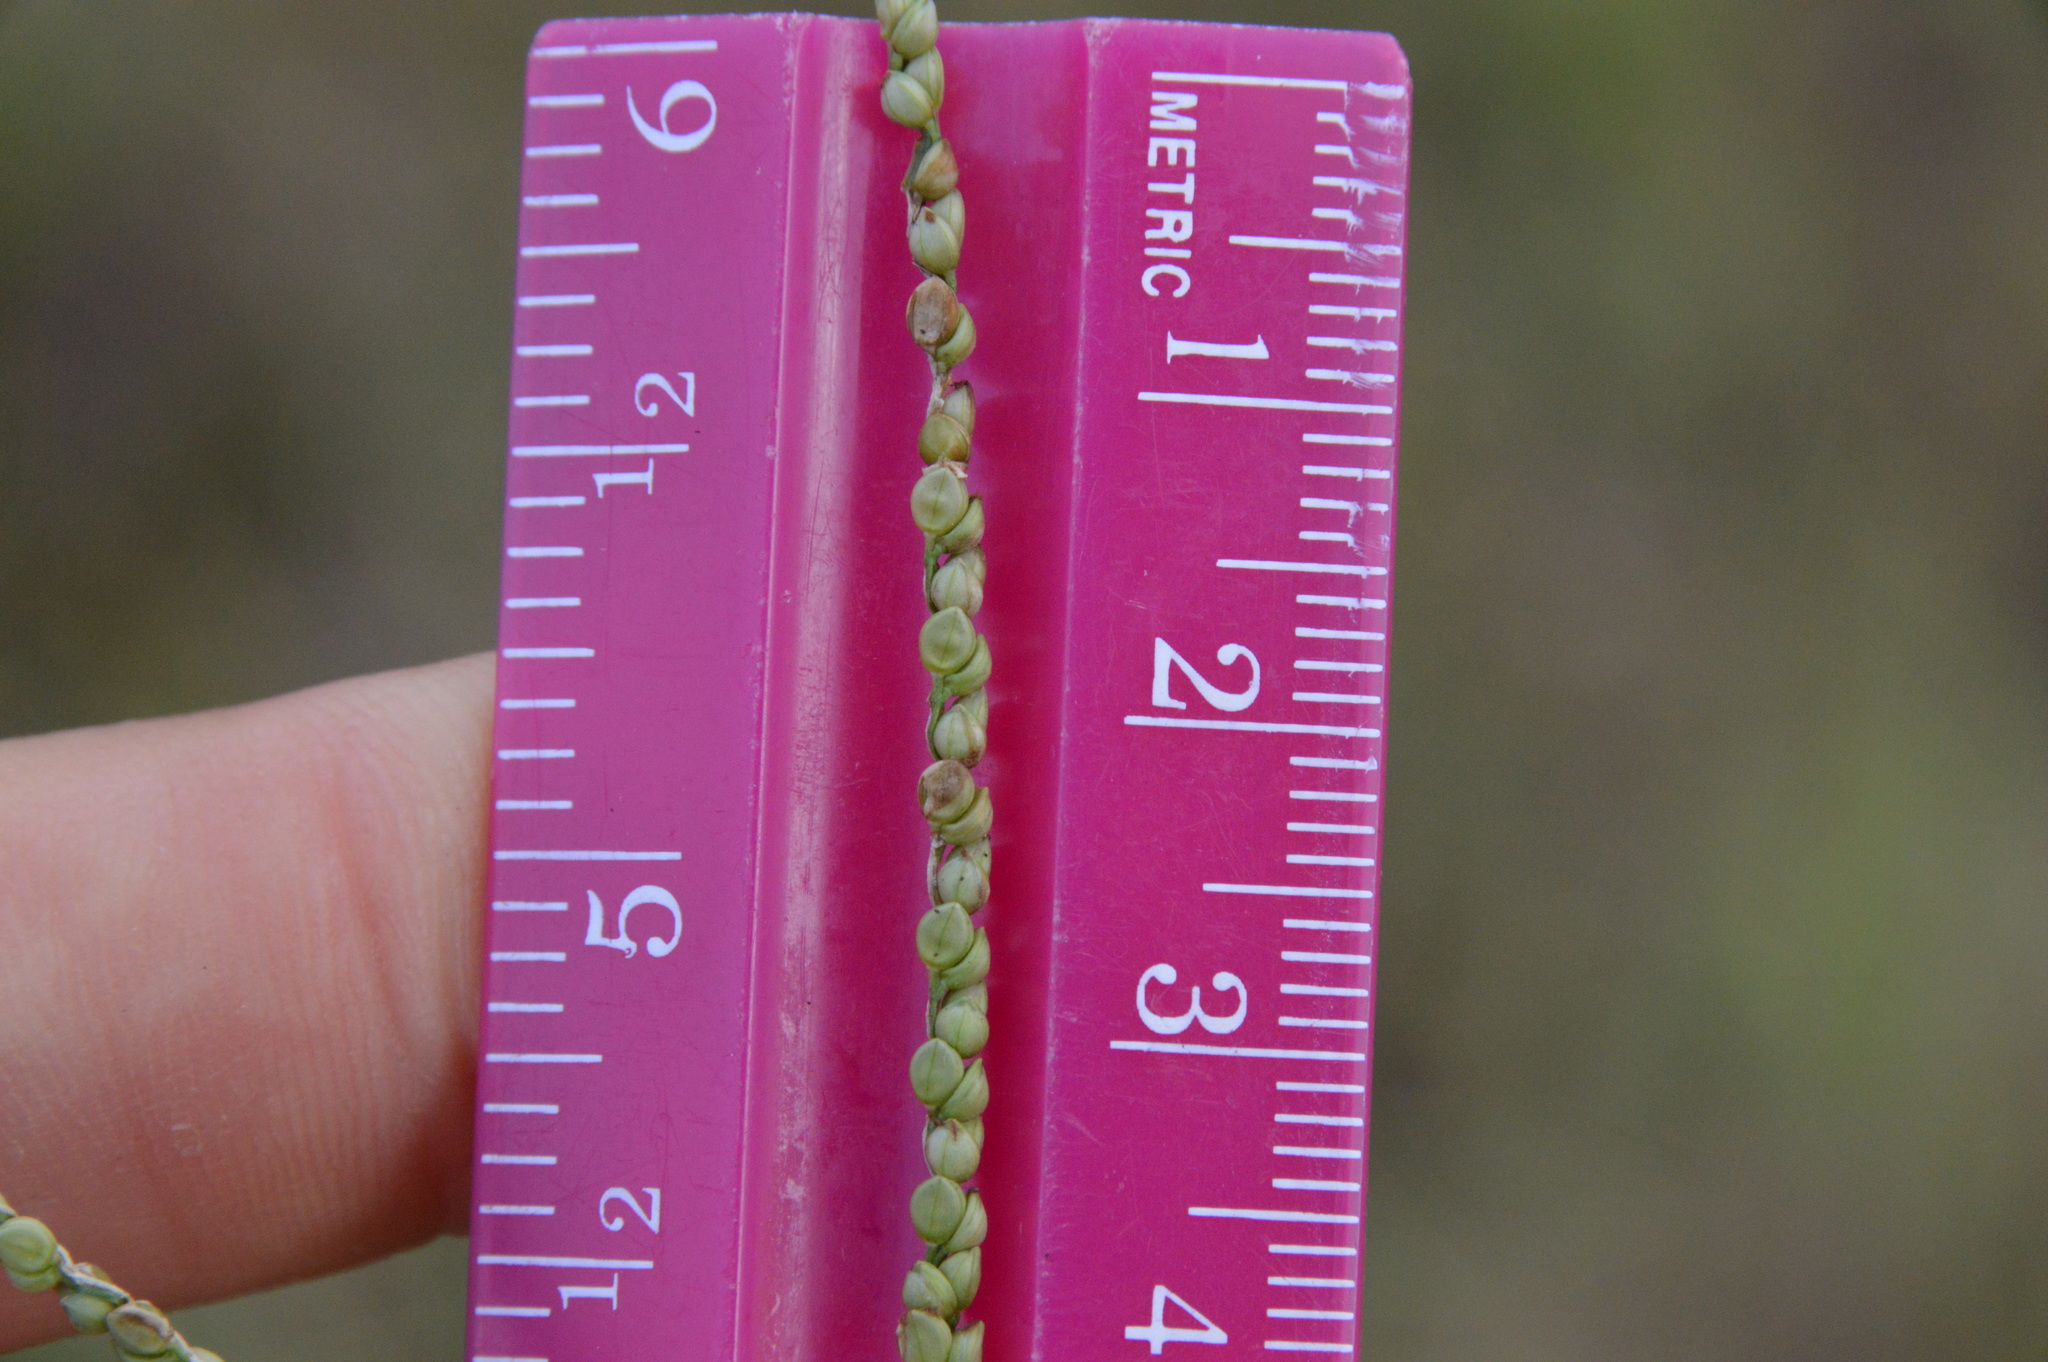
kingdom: Plantae
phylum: Tracheophyta
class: Liliopsida
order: Poales
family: Poaceae
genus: Paspalum
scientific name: Paspalum setaceum
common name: Slender paspalum
